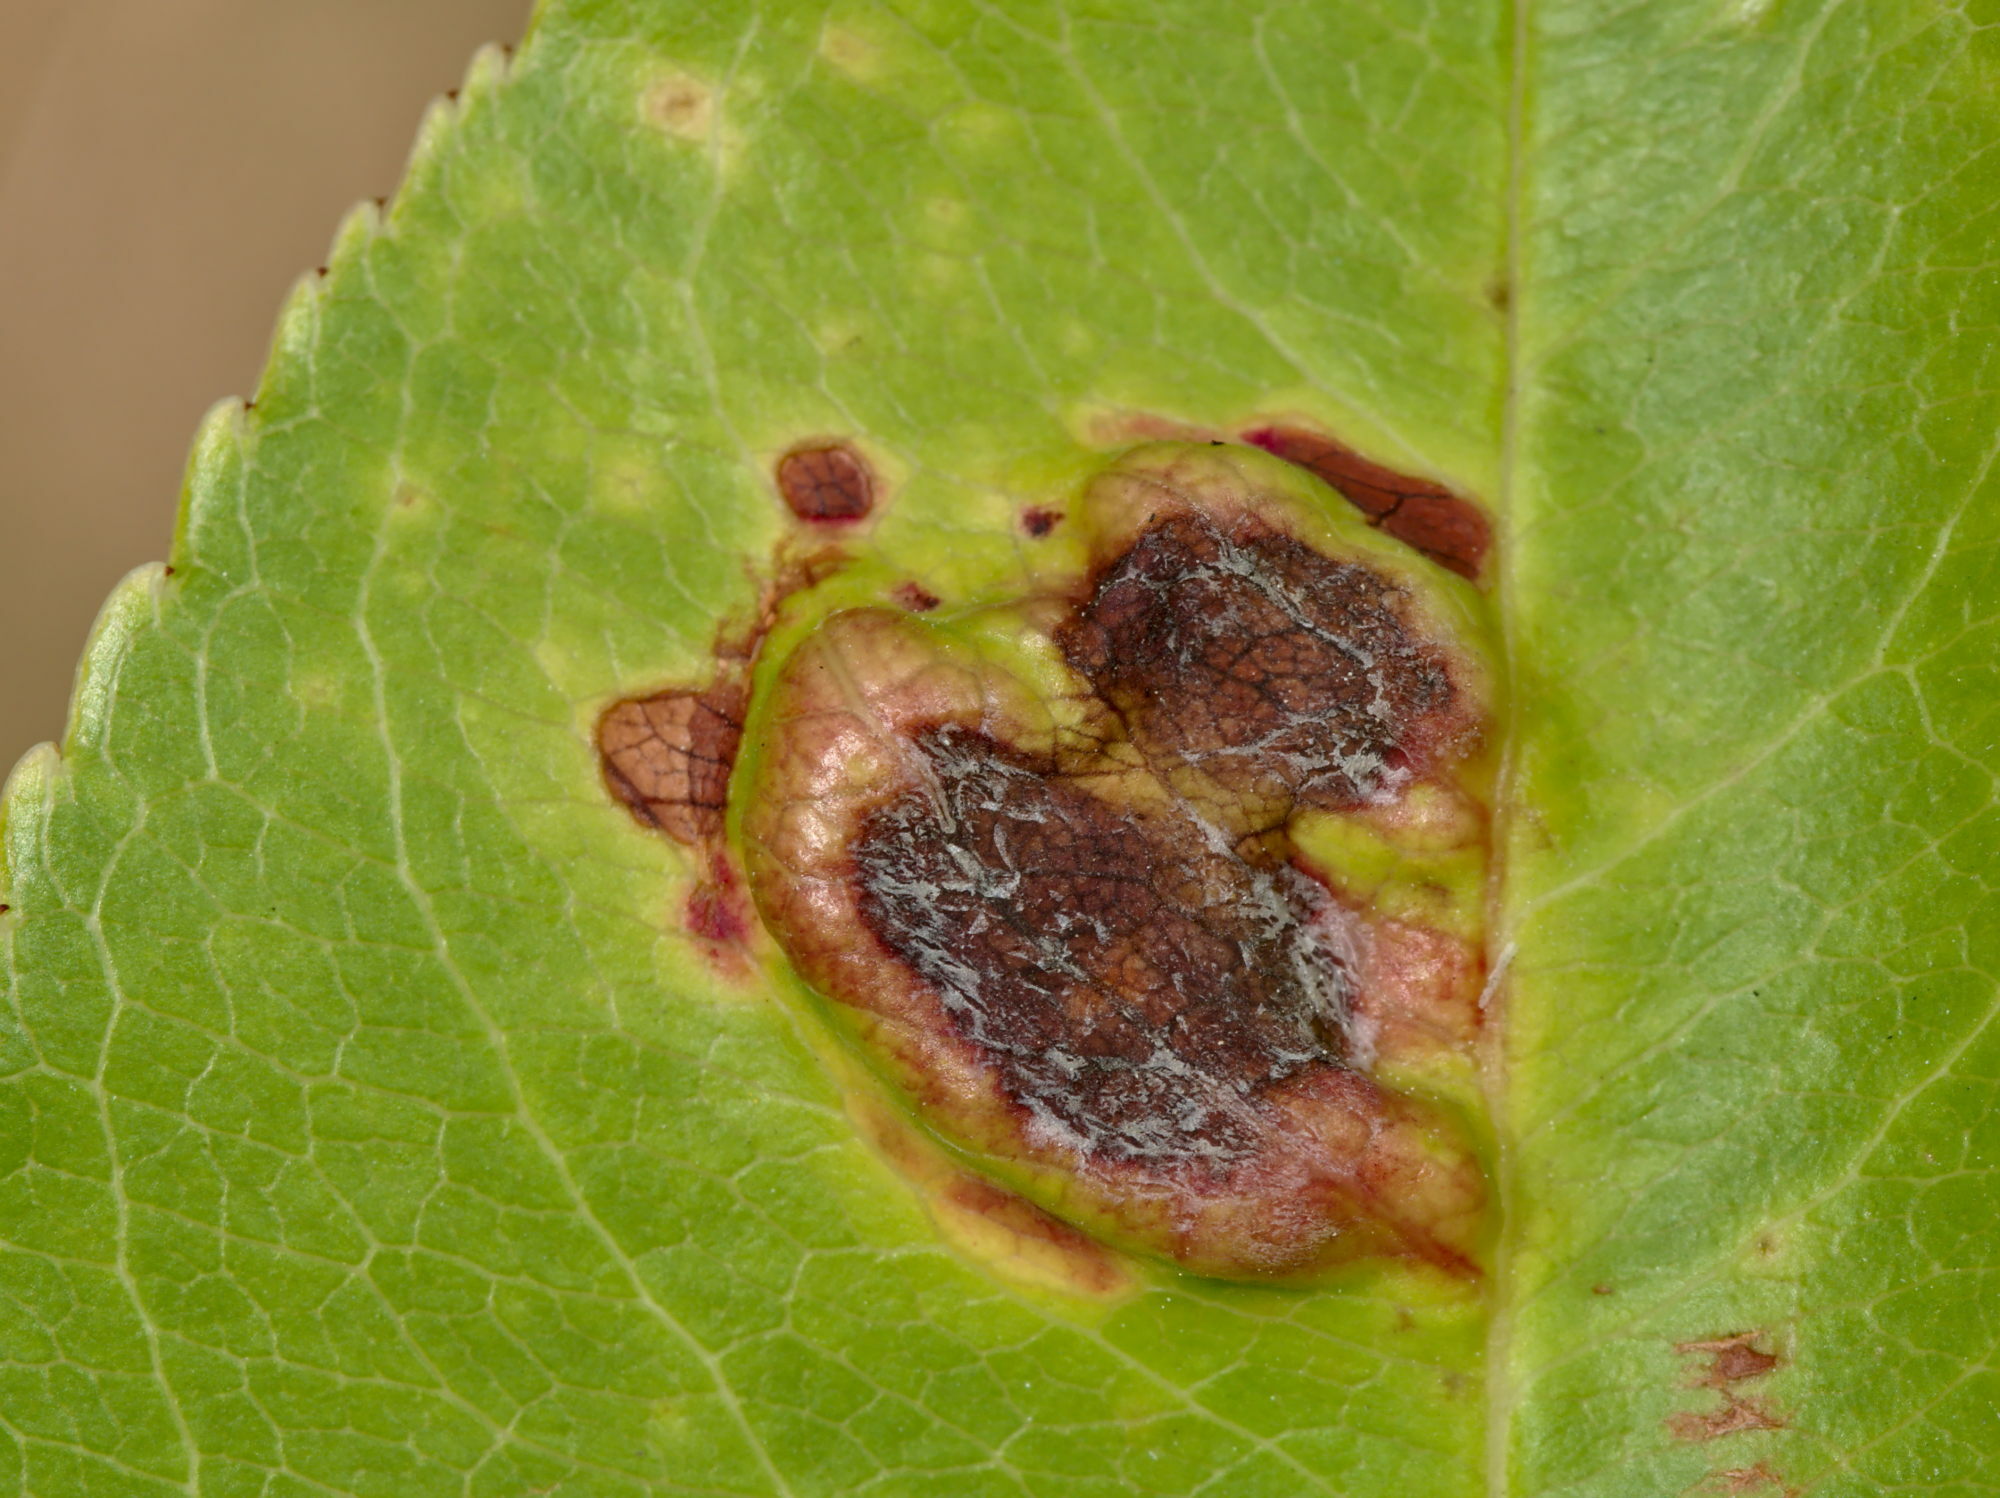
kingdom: Fungi
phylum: Ascomycota
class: Taphrinomycetes
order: Taphrinales
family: Taphrinaceae
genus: Taphrina
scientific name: Taphrina farlowii
